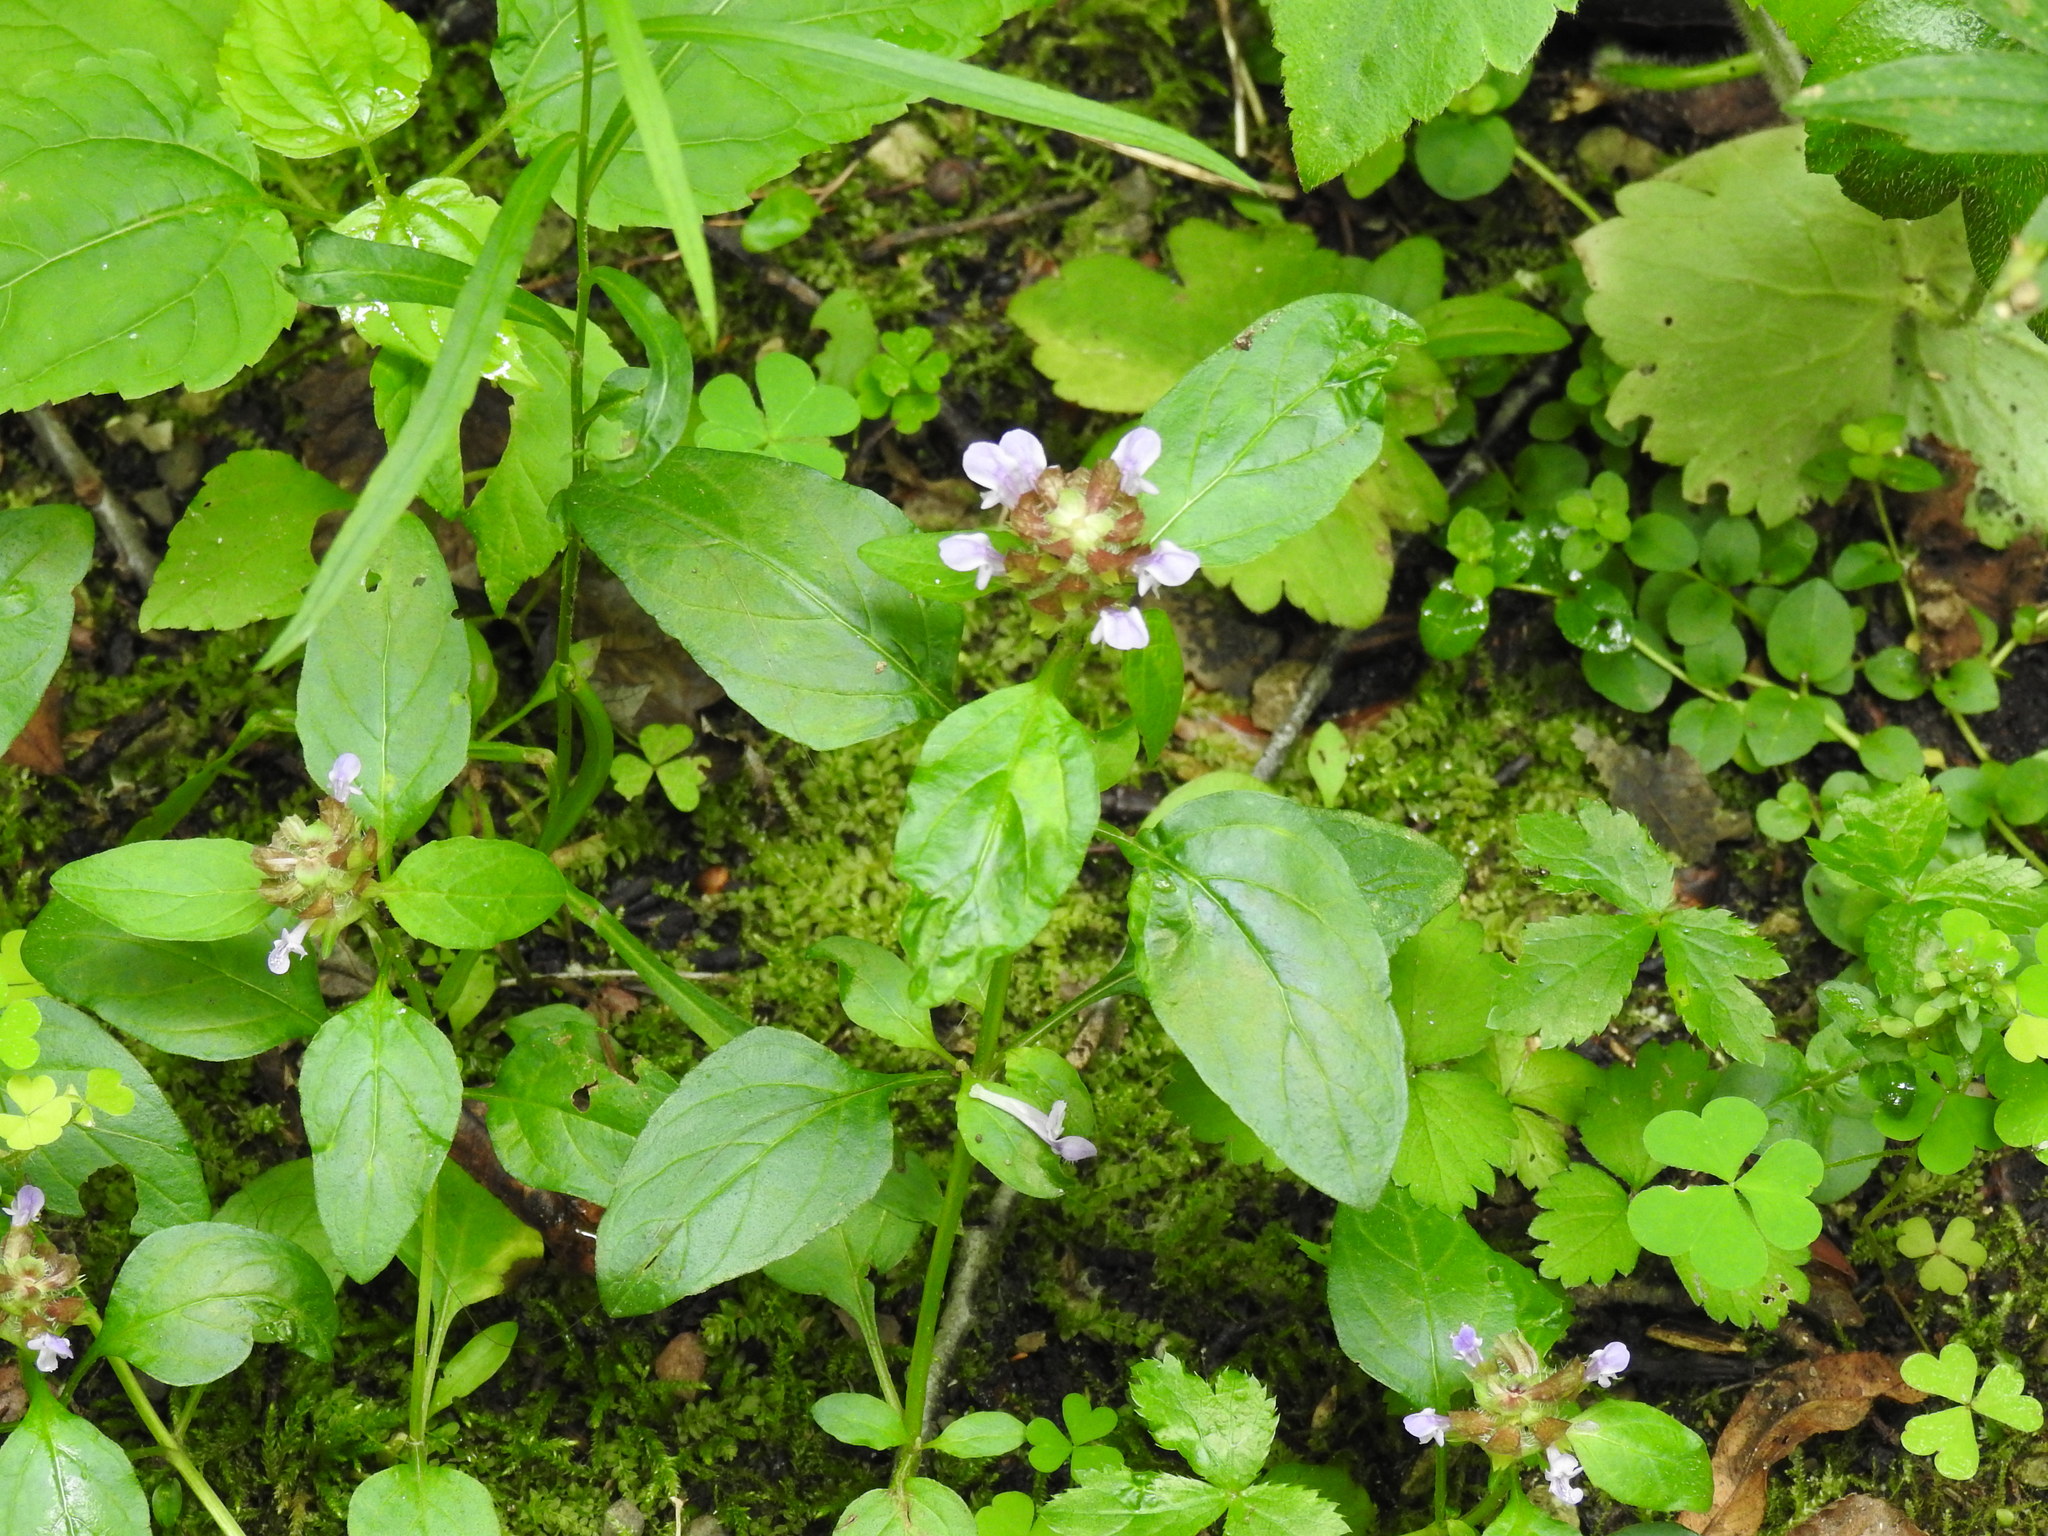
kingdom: Plantae
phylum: Tracheophyta
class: Magnoliopsida
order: Lamiales
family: Lamiaceae
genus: Prunella
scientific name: Prunella vulgaris
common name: Heal-all
